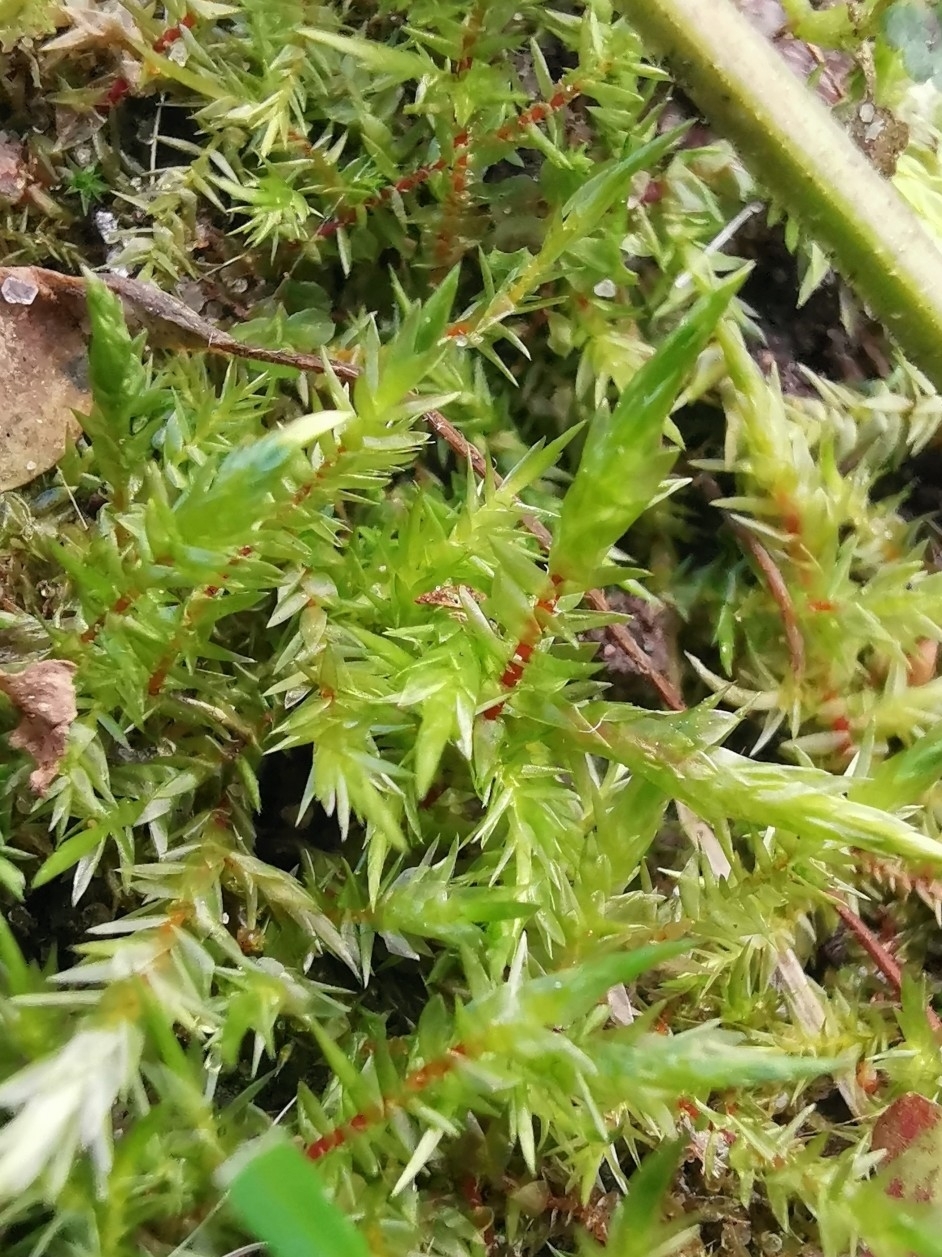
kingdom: Plantae
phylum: Bryophyta
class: Bryopsida
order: Hypnales
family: Pylaisiaceae
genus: Calliergonella
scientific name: Calliergonella cuspidata
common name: Common large wetland moss
